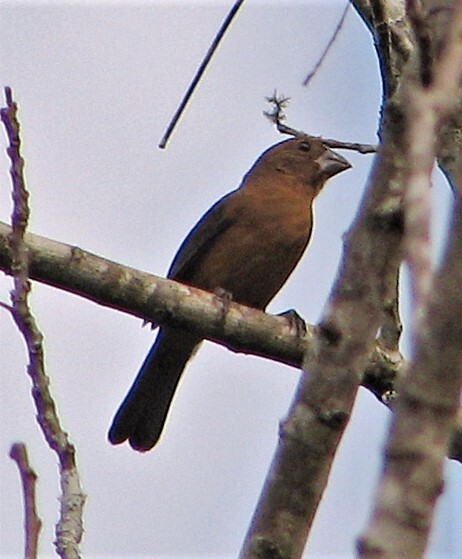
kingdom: Animalia
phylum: Chordata
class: Aves
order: Passeriformes
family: Cardinalidae
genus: Cyanoloxia
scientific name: Cyanoloxia brissonii
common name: Ultramarine grosbeak
